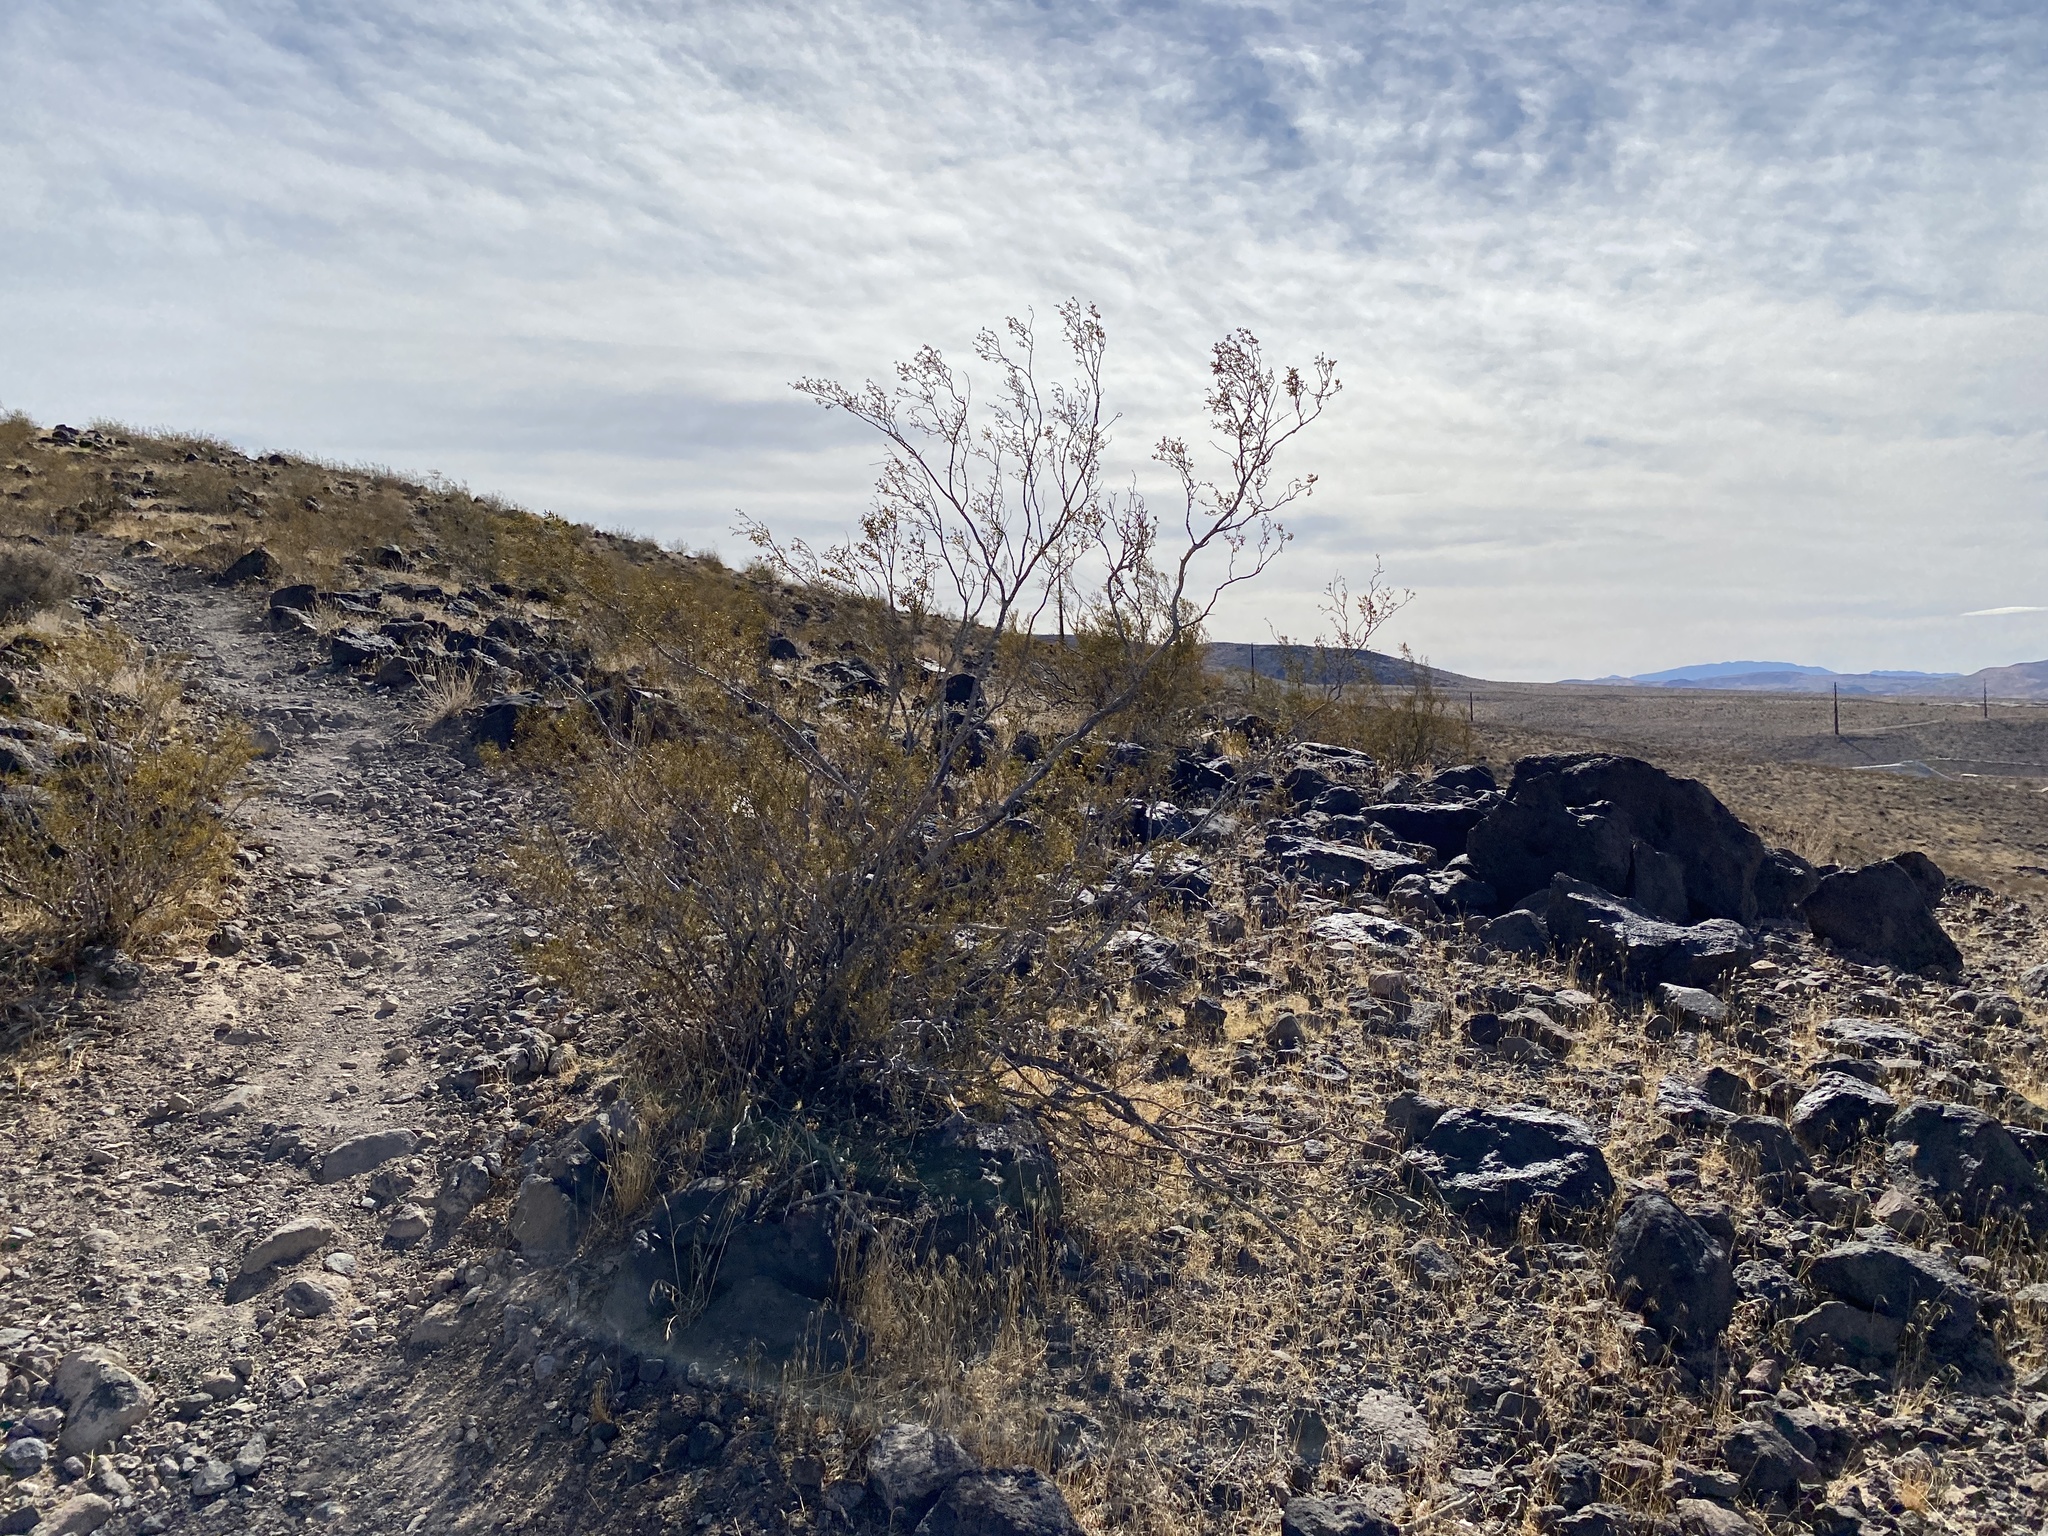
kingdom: Plantae
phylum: Tracheophyta
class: Magnoliopsida
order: Zygophyllales
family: Zygophyllaceae
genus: Larrea
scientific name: Larrea tridentata
